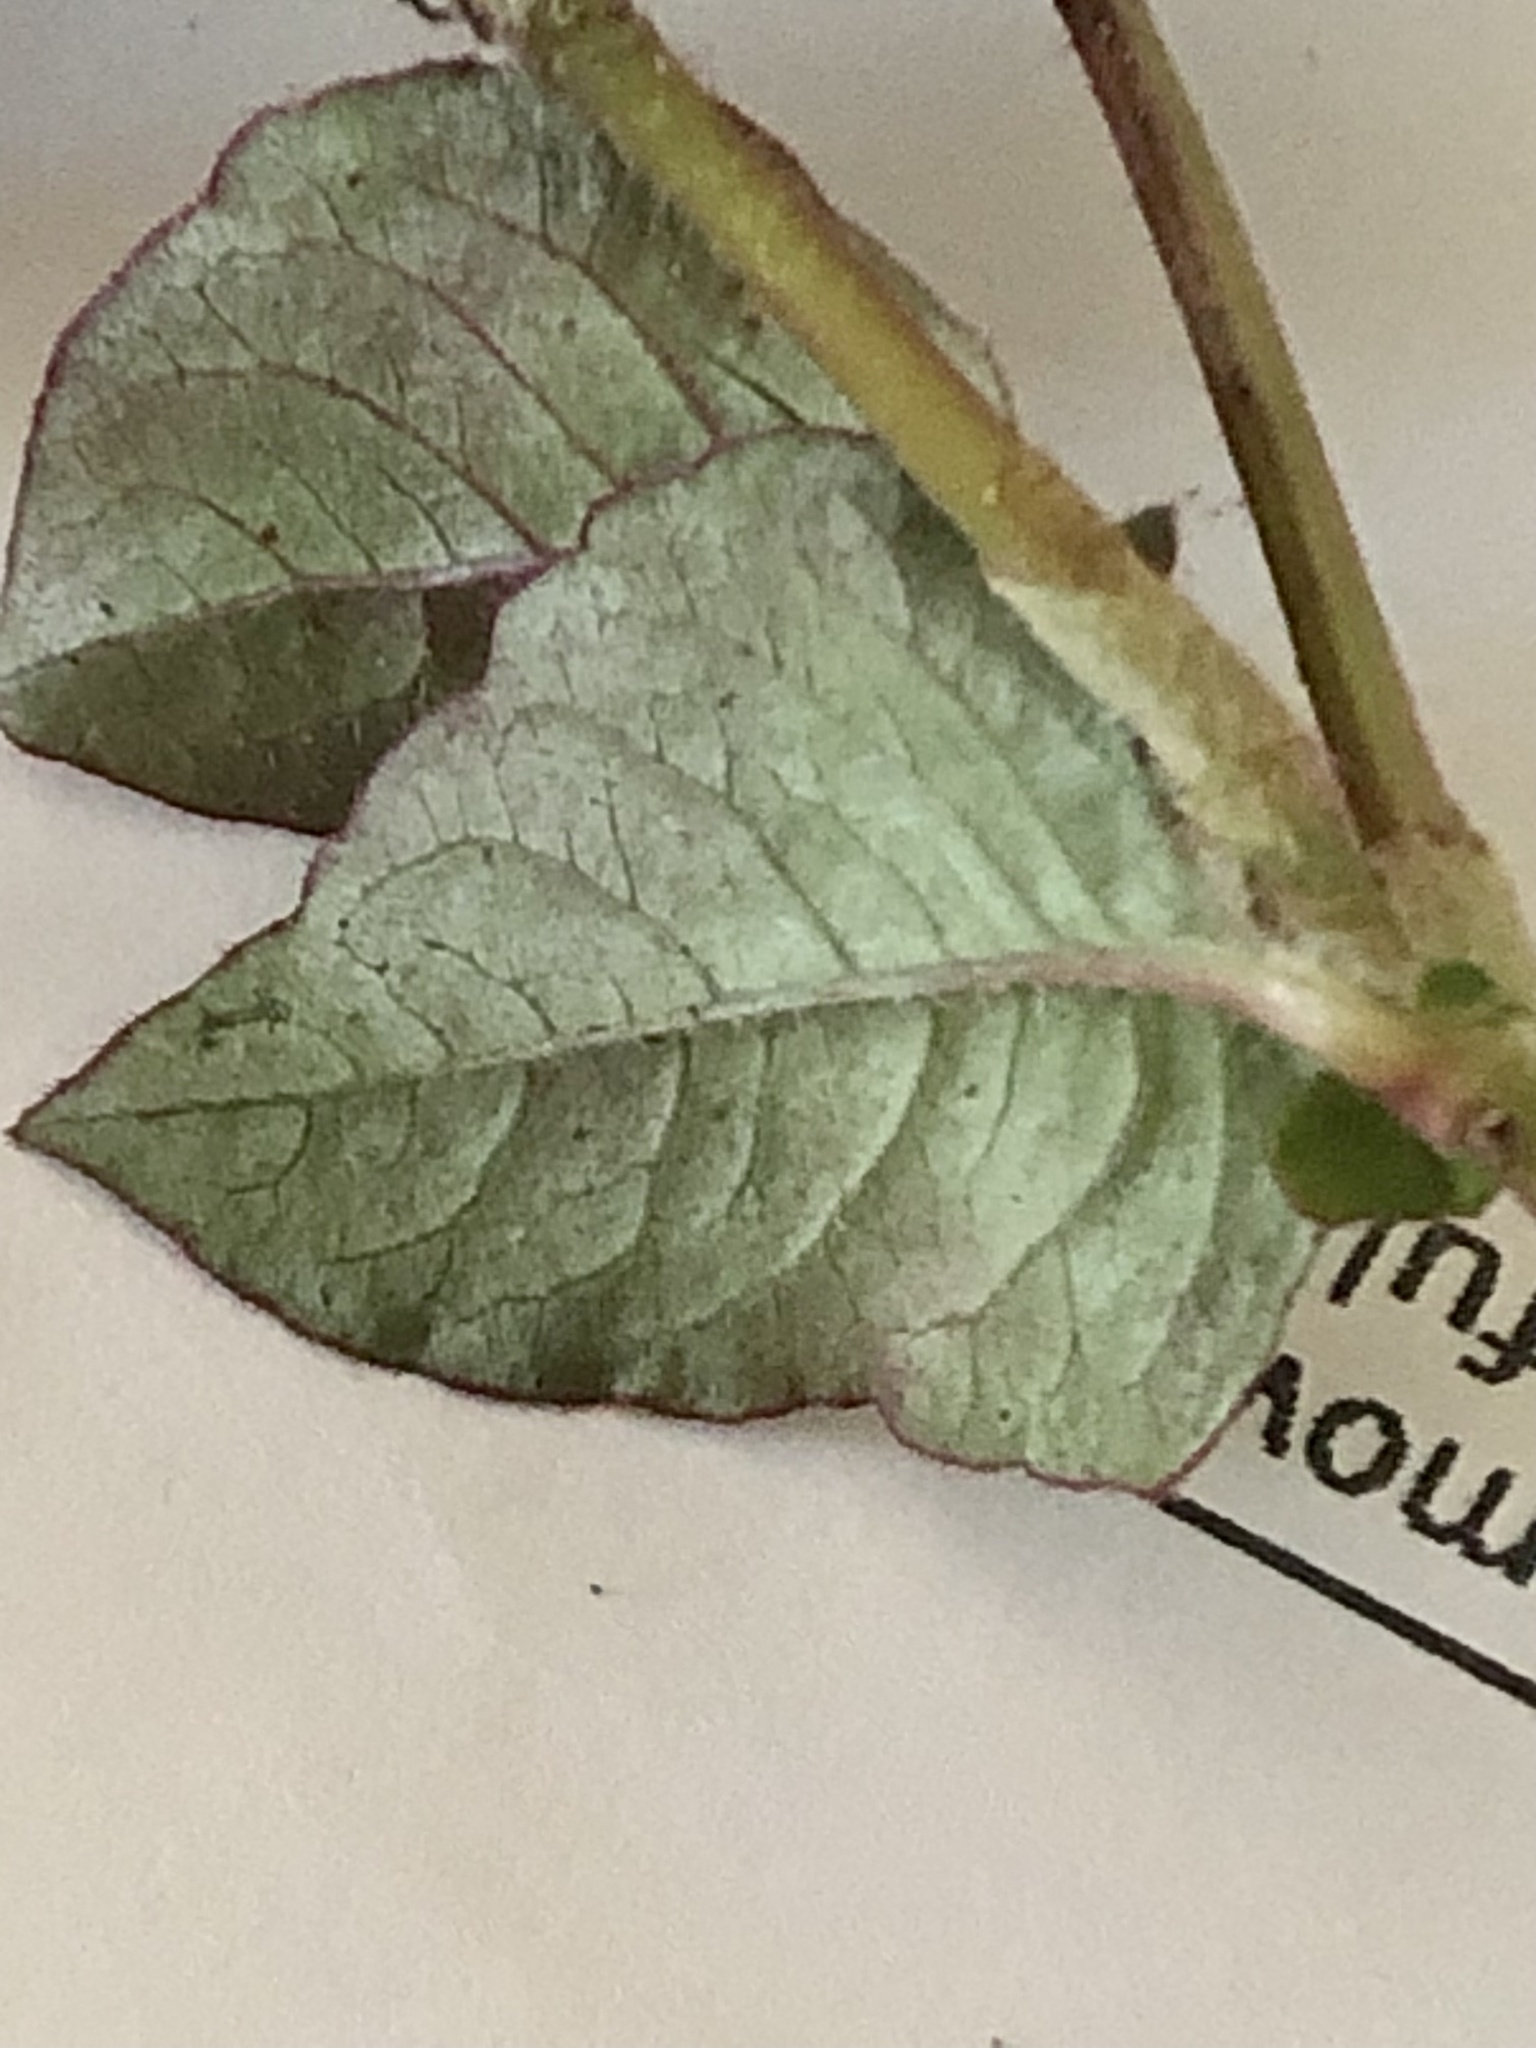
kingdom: Plantae
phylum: Tracheophyta
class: Magnoliopsida
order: Caryophyllales
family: Polygonaceae
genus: Persicaria
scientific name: Persicaria capitata
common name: Pinkhead smartweed
